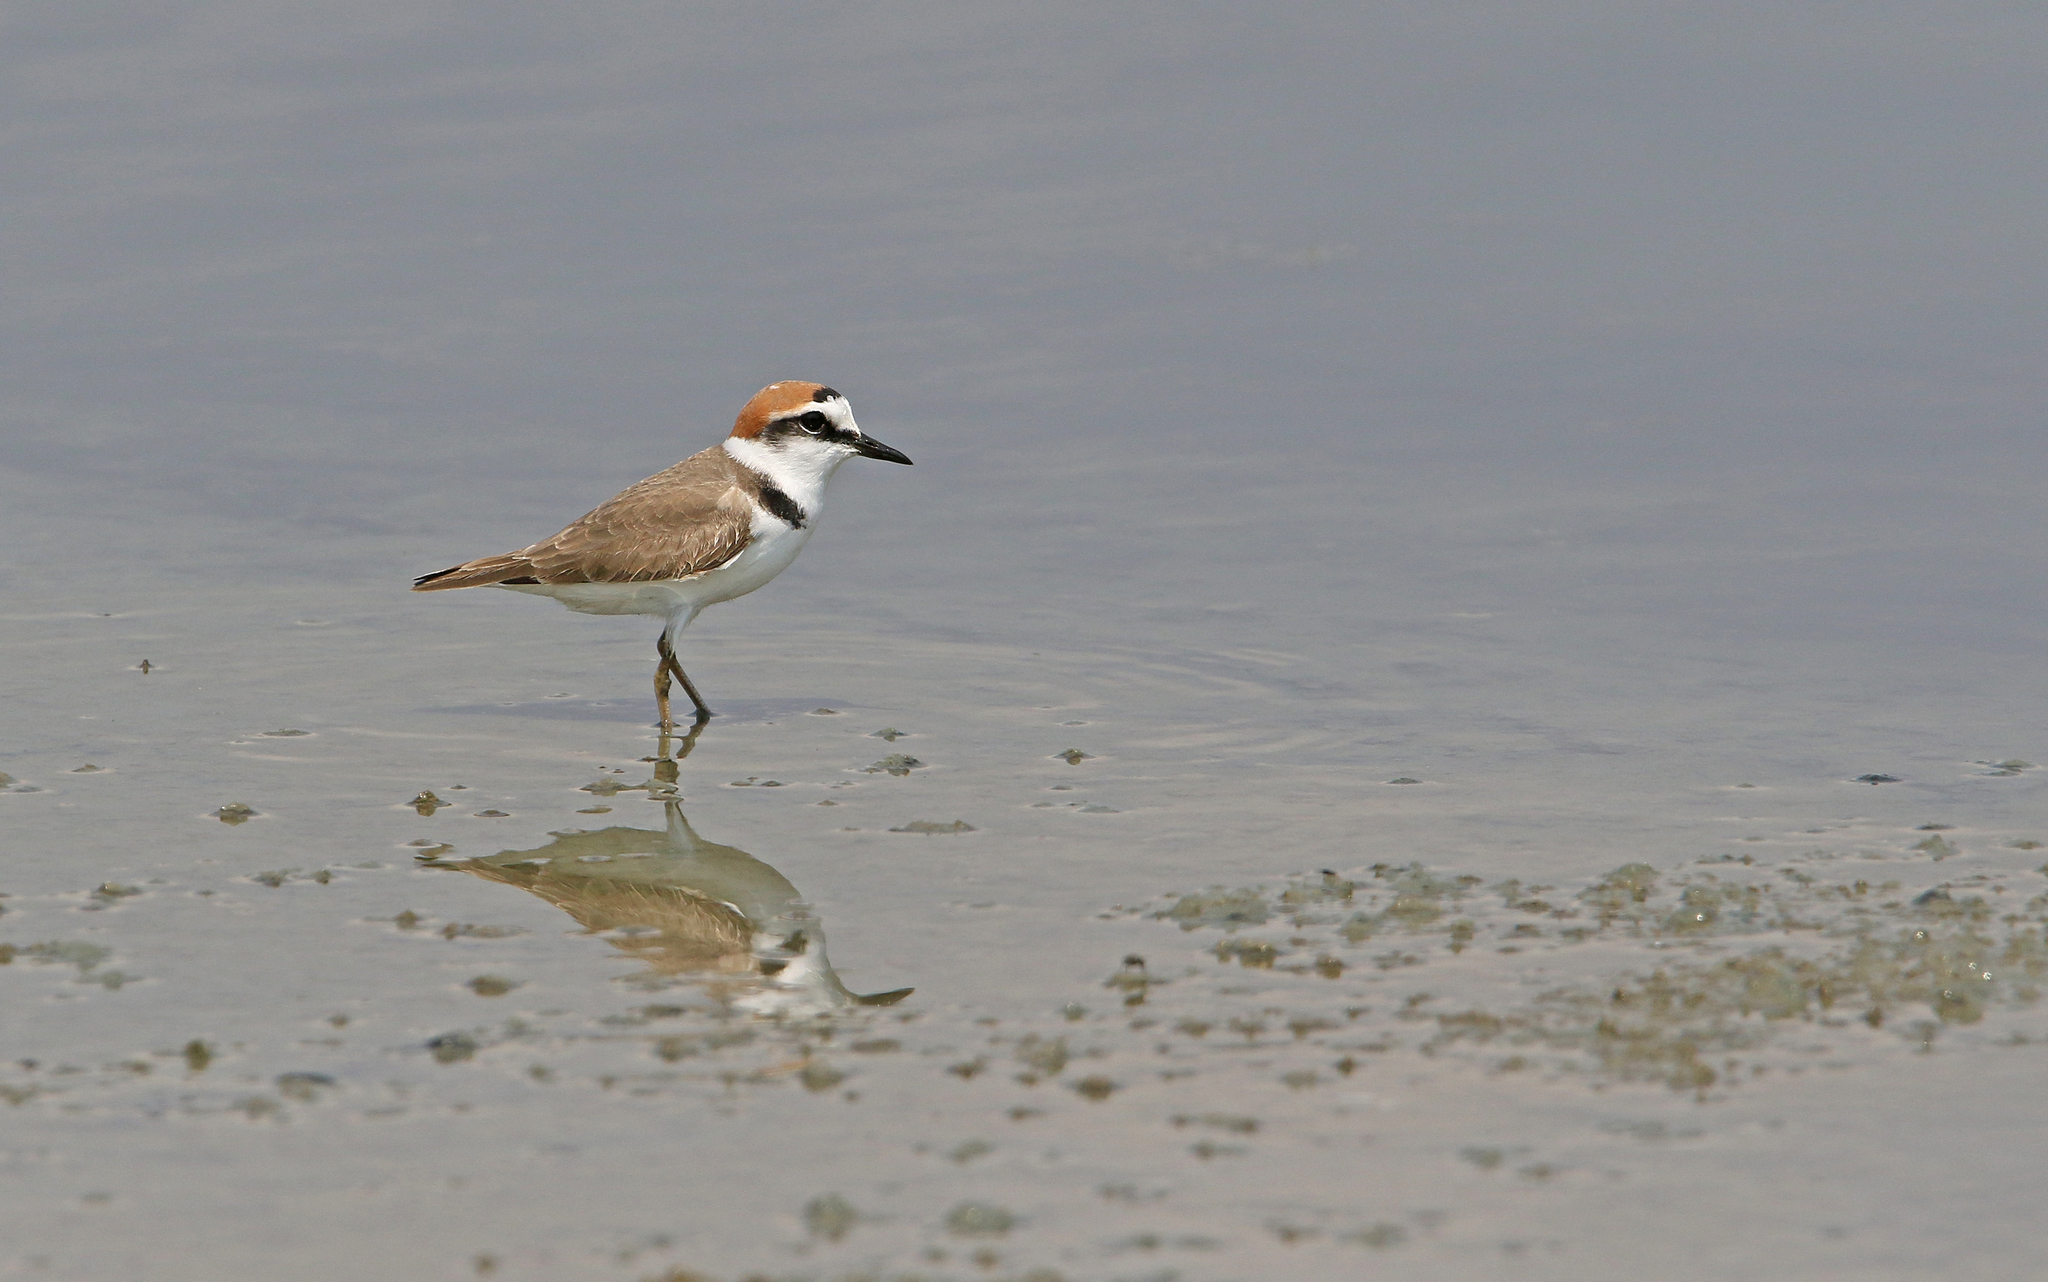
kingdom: Animalia
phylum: Chordata
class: Aves
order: Charadriiformes
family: Charadriidae
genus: Charadrius
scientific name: Charadrius alexandrinus
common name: Kentish plover
